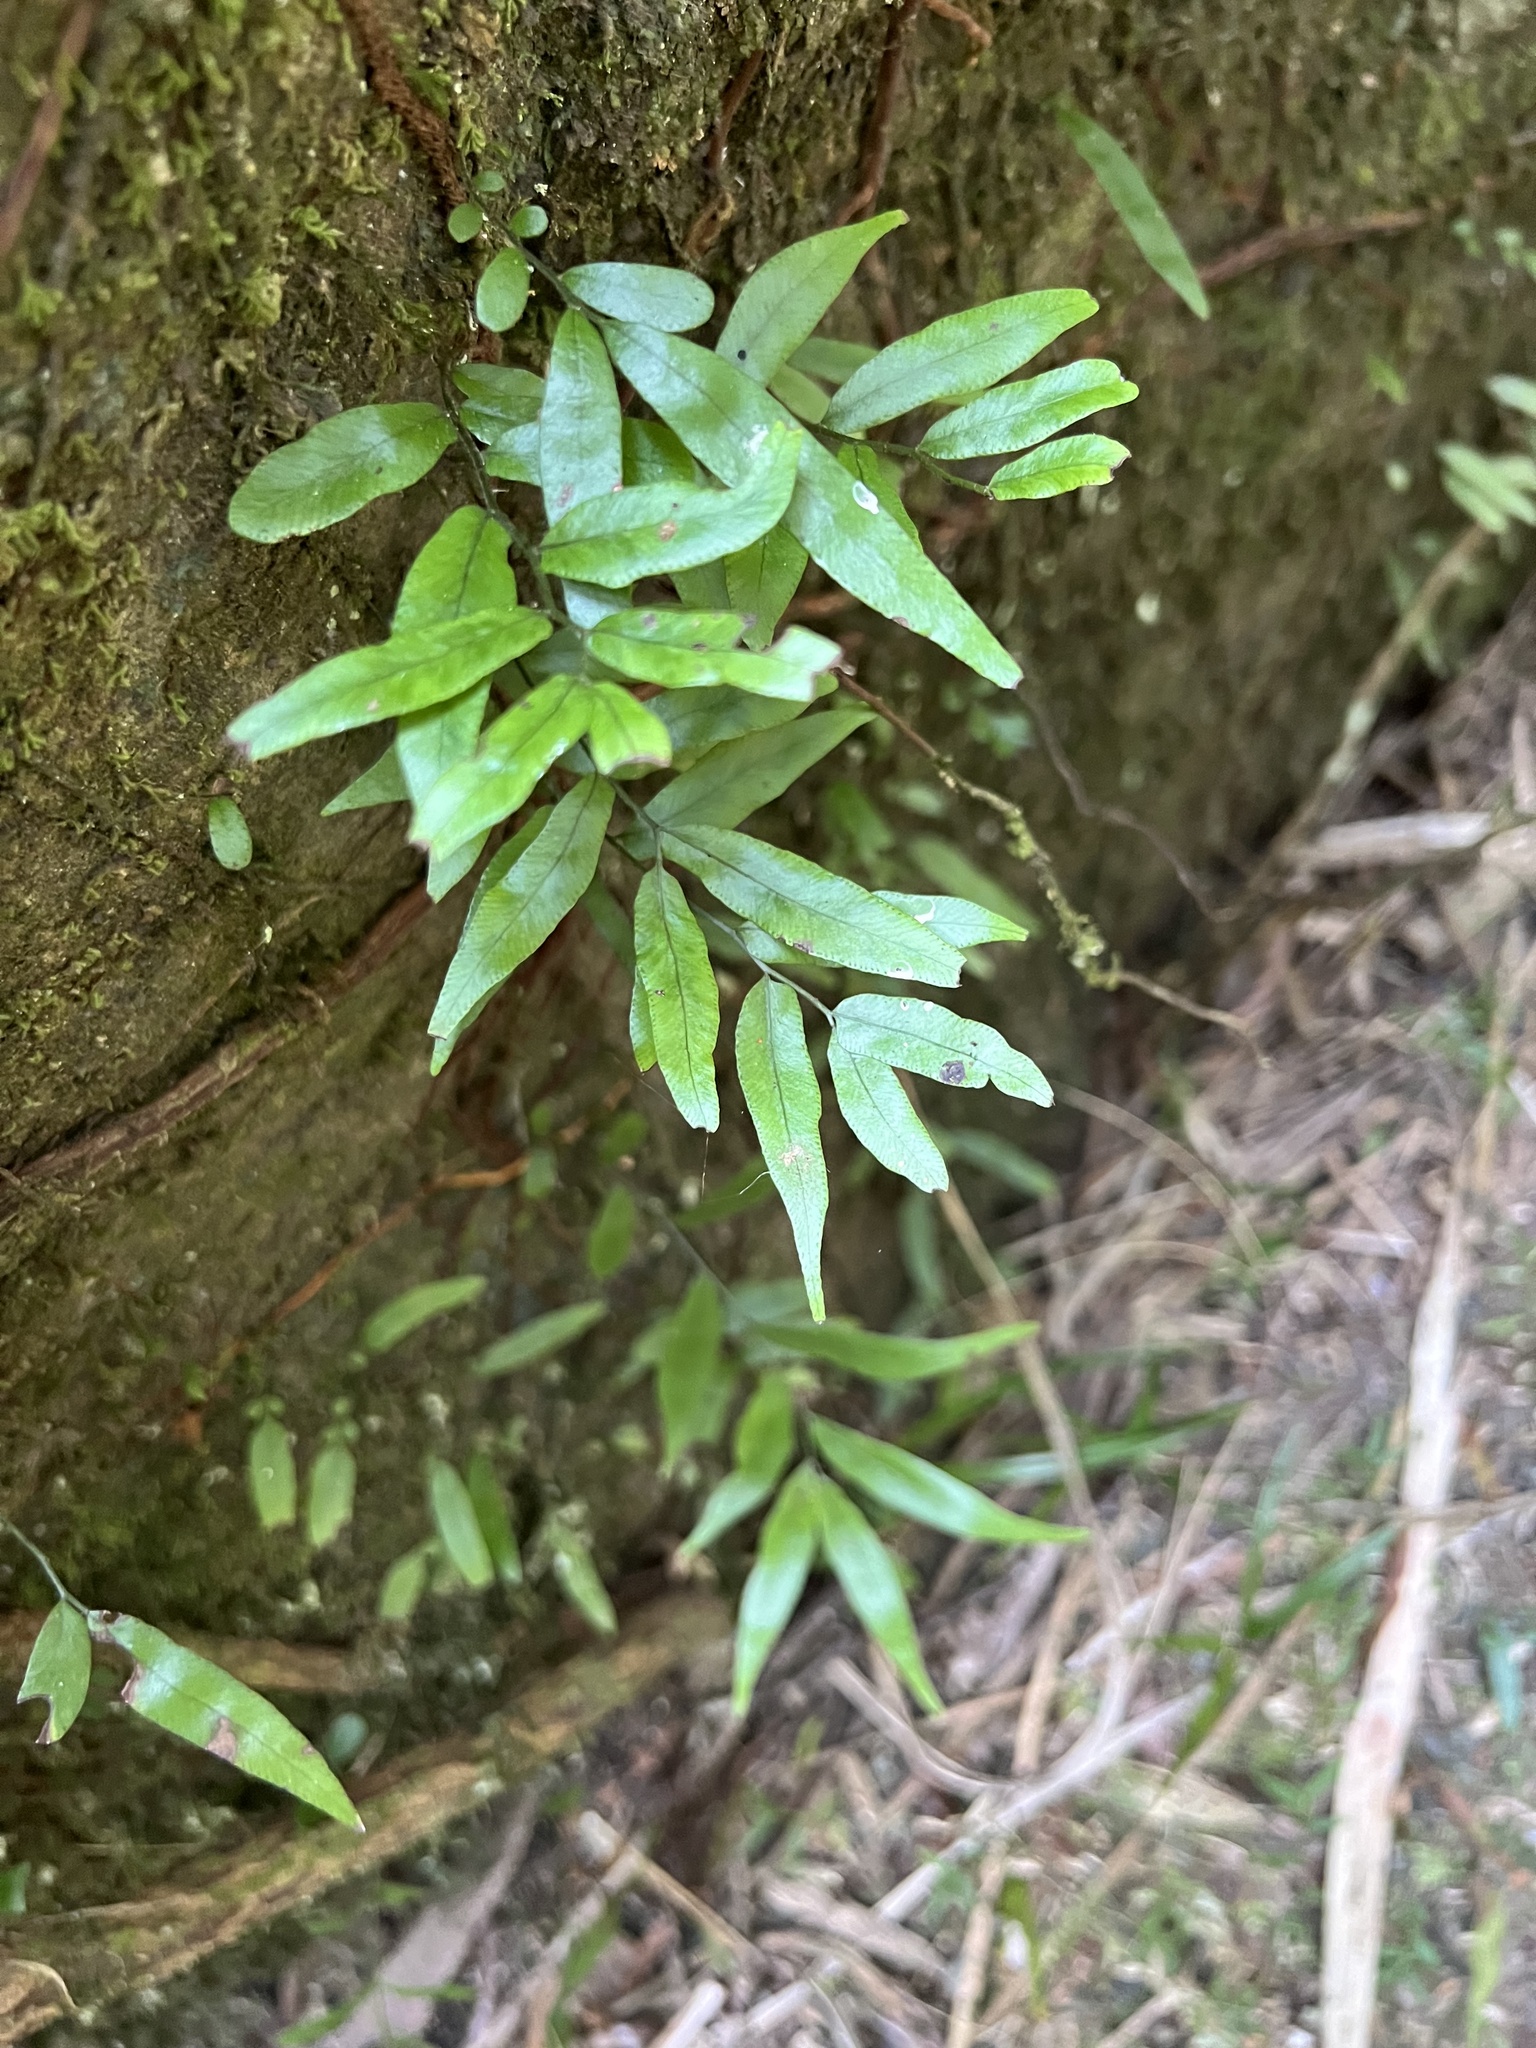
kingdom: Plantae
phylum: Tracheophyta
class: Polypodiopsida
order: Polypodiales
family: Tectariaceae
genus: Arthropteris
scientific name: Arthropteris tenella
